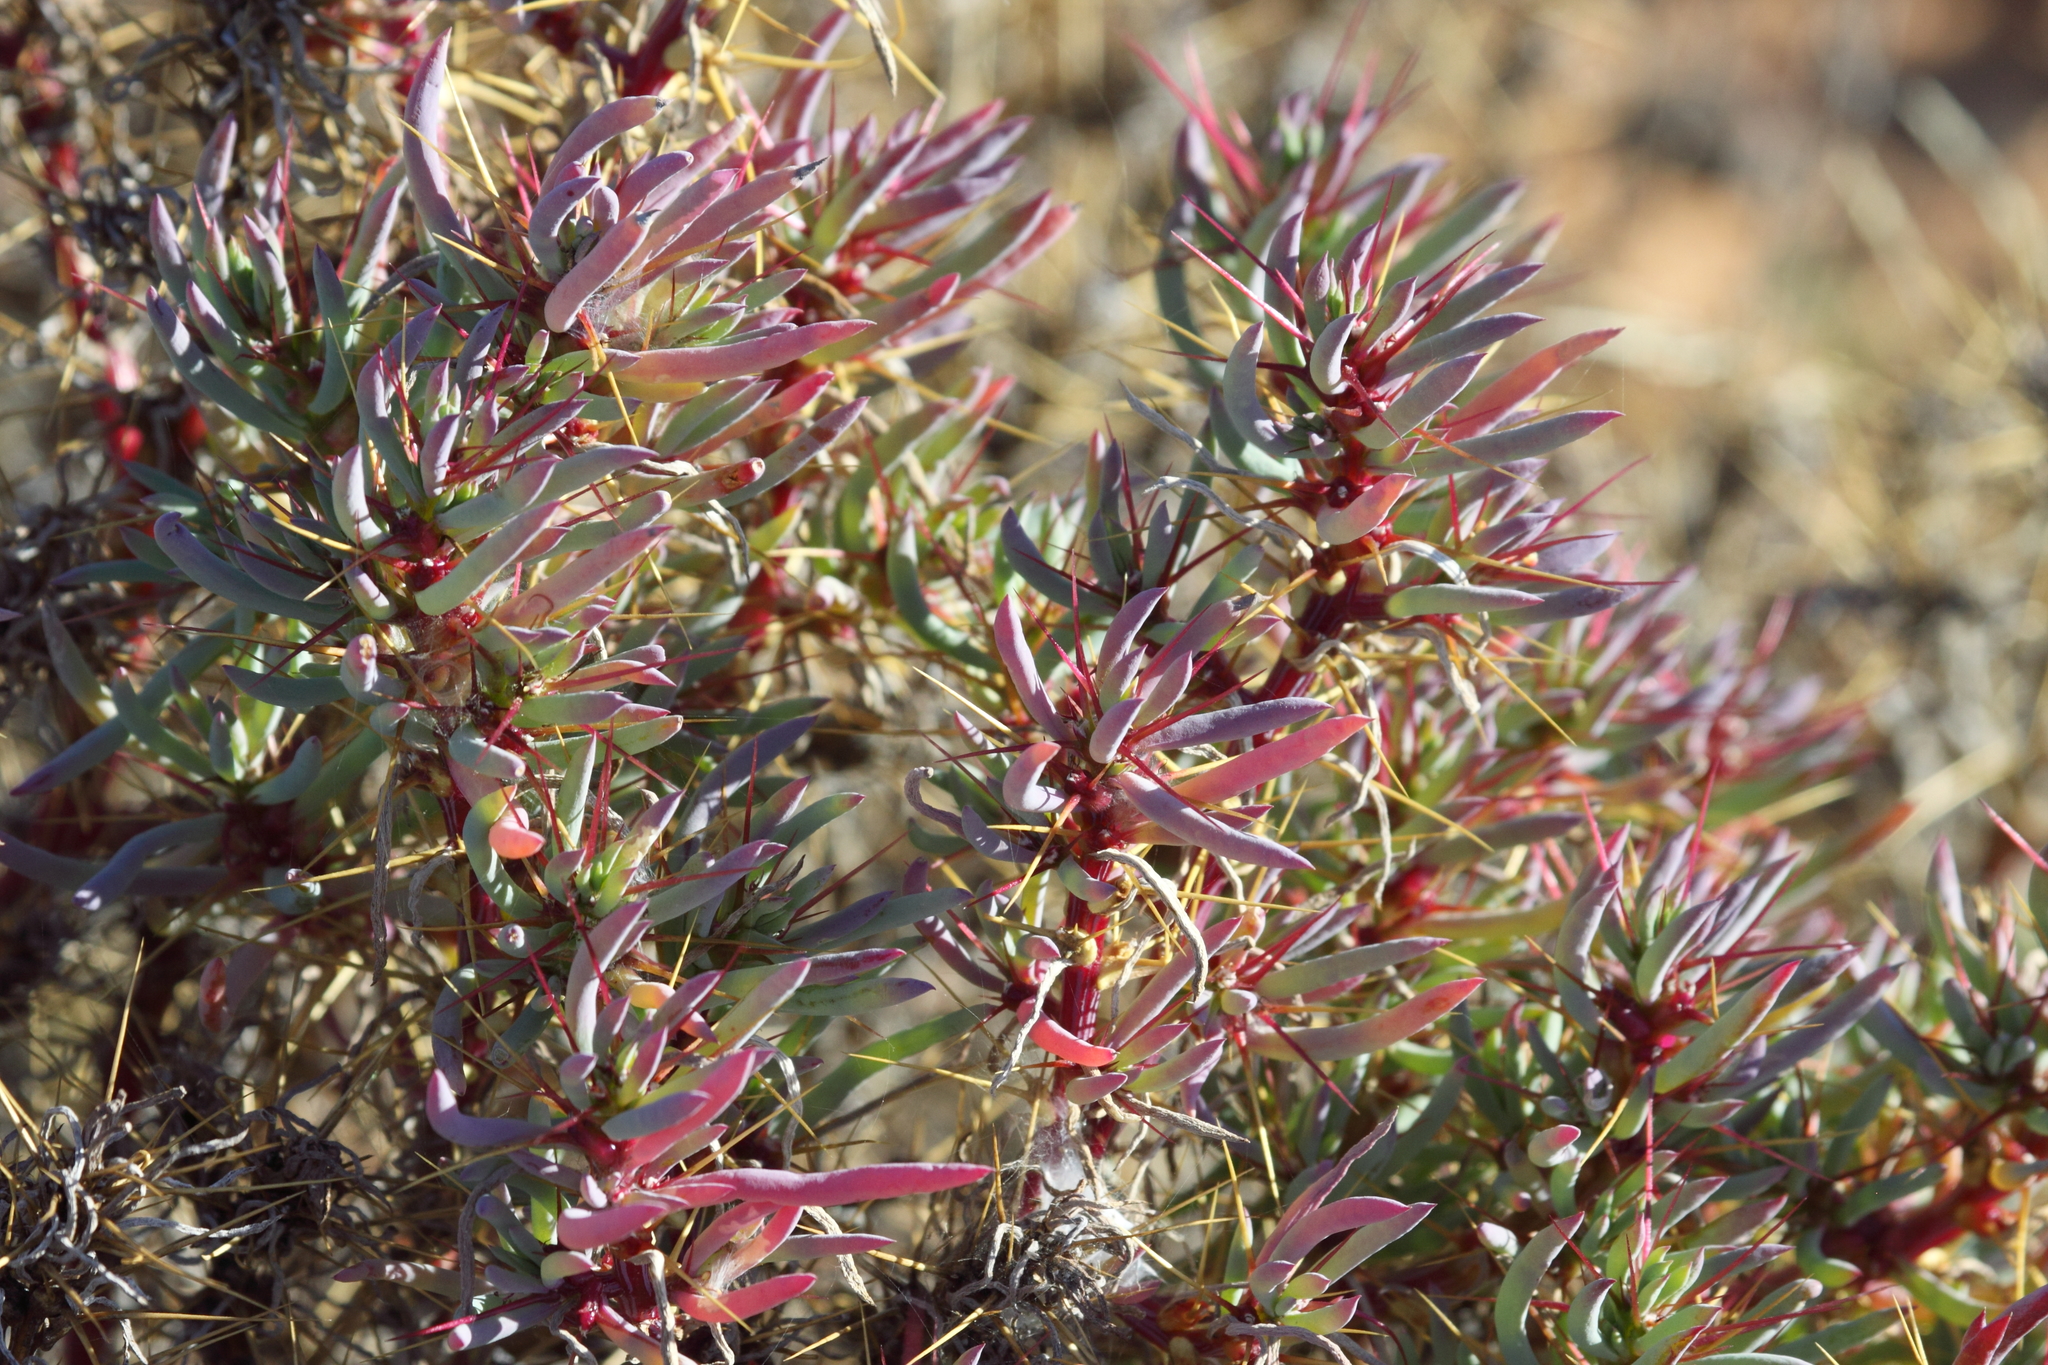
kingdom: Plantae
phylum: Tracheophyta
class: Magnoliopsida
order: Caryophyllales
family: Amaranthaceae
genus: Sclerolaena
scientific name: Sclerolaena longicuspis
